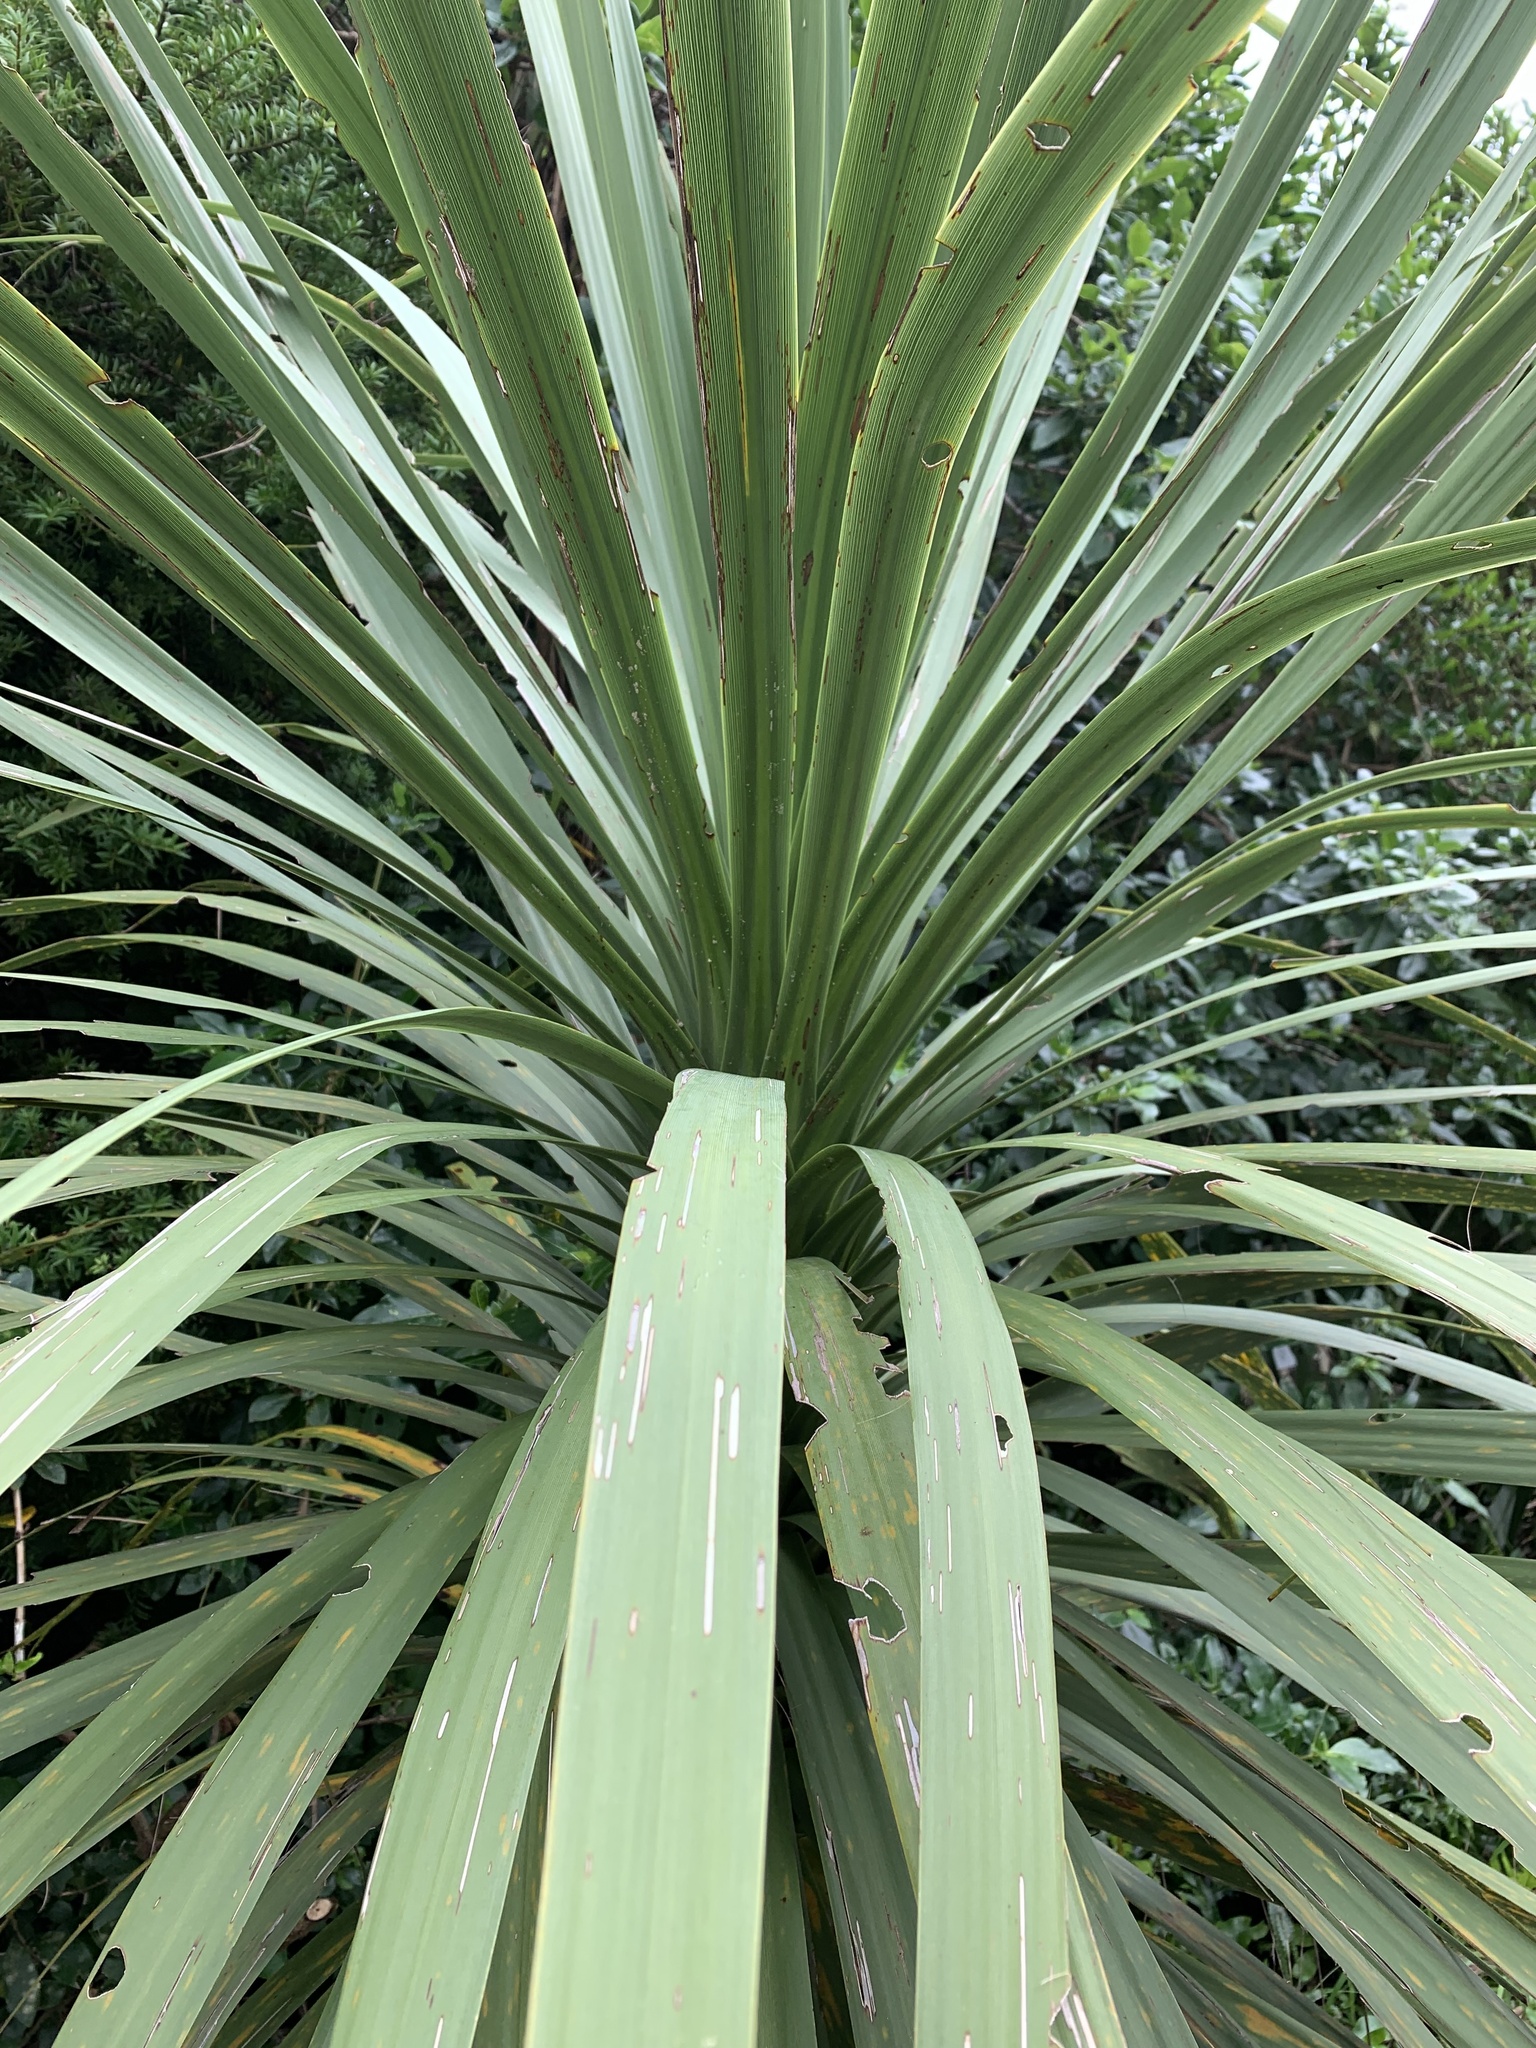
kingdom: Plantae
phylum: Tracheophyta
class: Liliopsida
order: Asparagales
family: Asparagaceae
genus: Cordyline
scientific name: Cordyline australis
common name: Cabbage-palm
